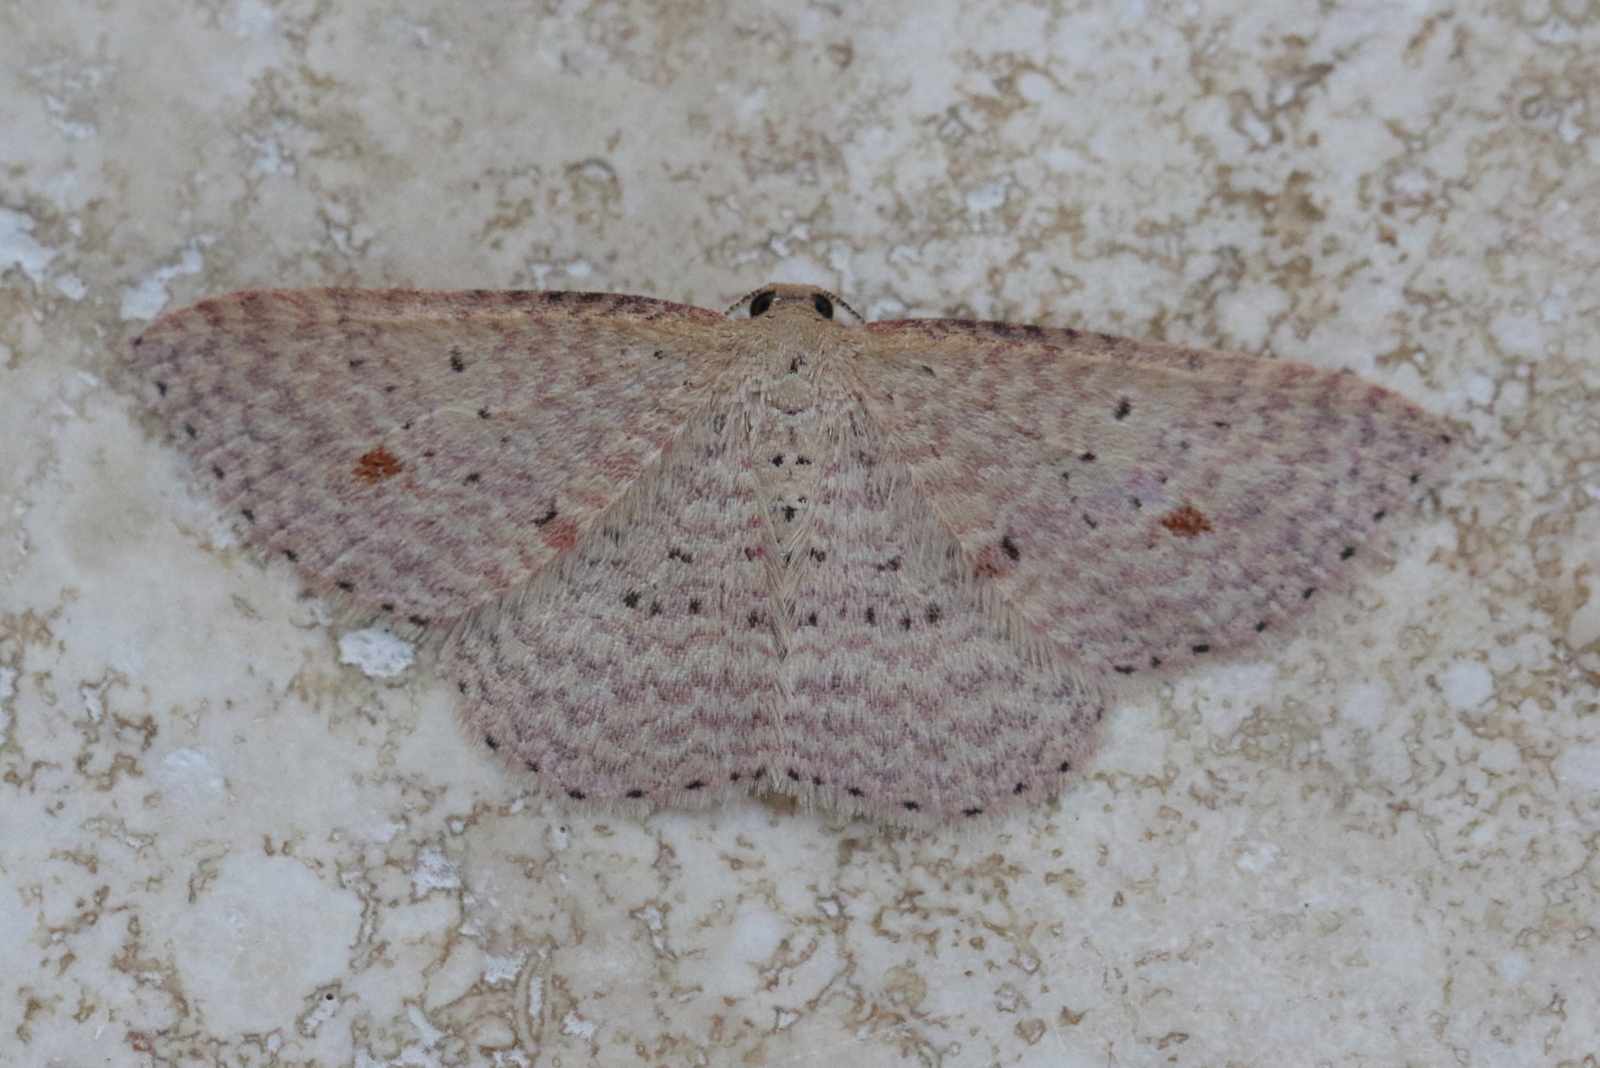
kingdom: Animalia
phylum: Arthropoda
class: Insecta
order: Lepidoptera
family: Geometridae
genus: Epicyme
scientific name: Epicyme rubropunctaria
